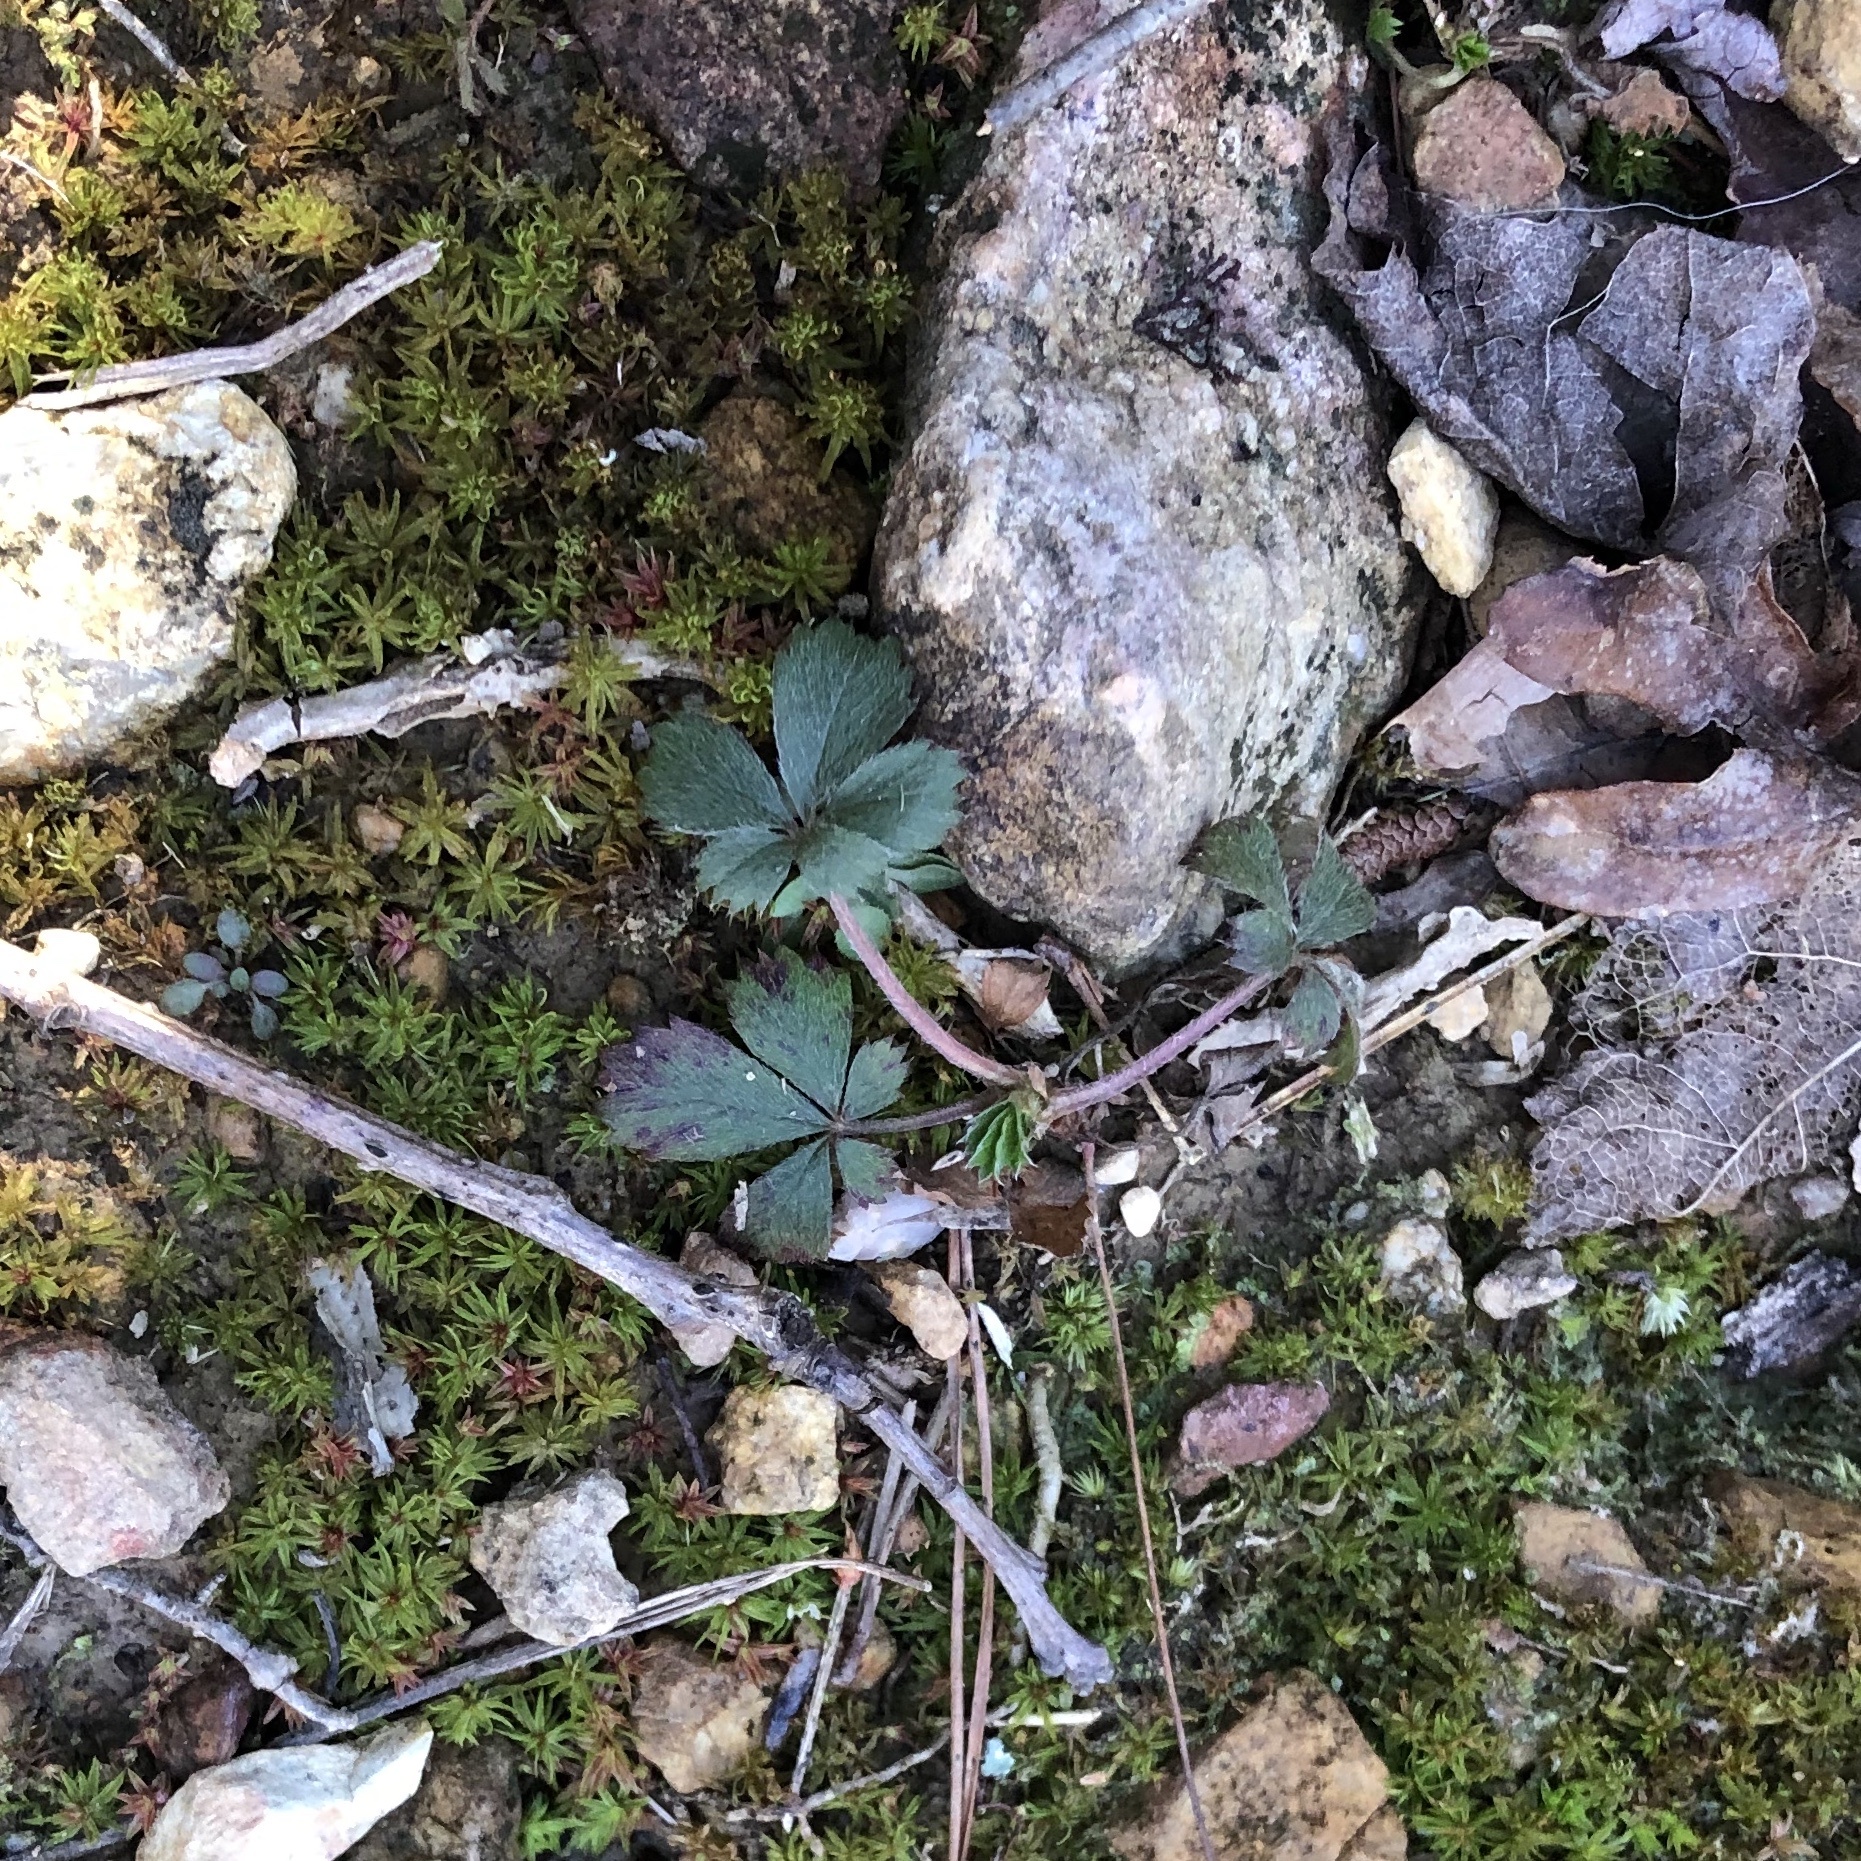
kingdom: Plantae
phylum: Tracheophyta
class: Magnoliopsida
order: Rosales
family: Rosaceae
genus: Potentilla
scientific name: Potentilla
